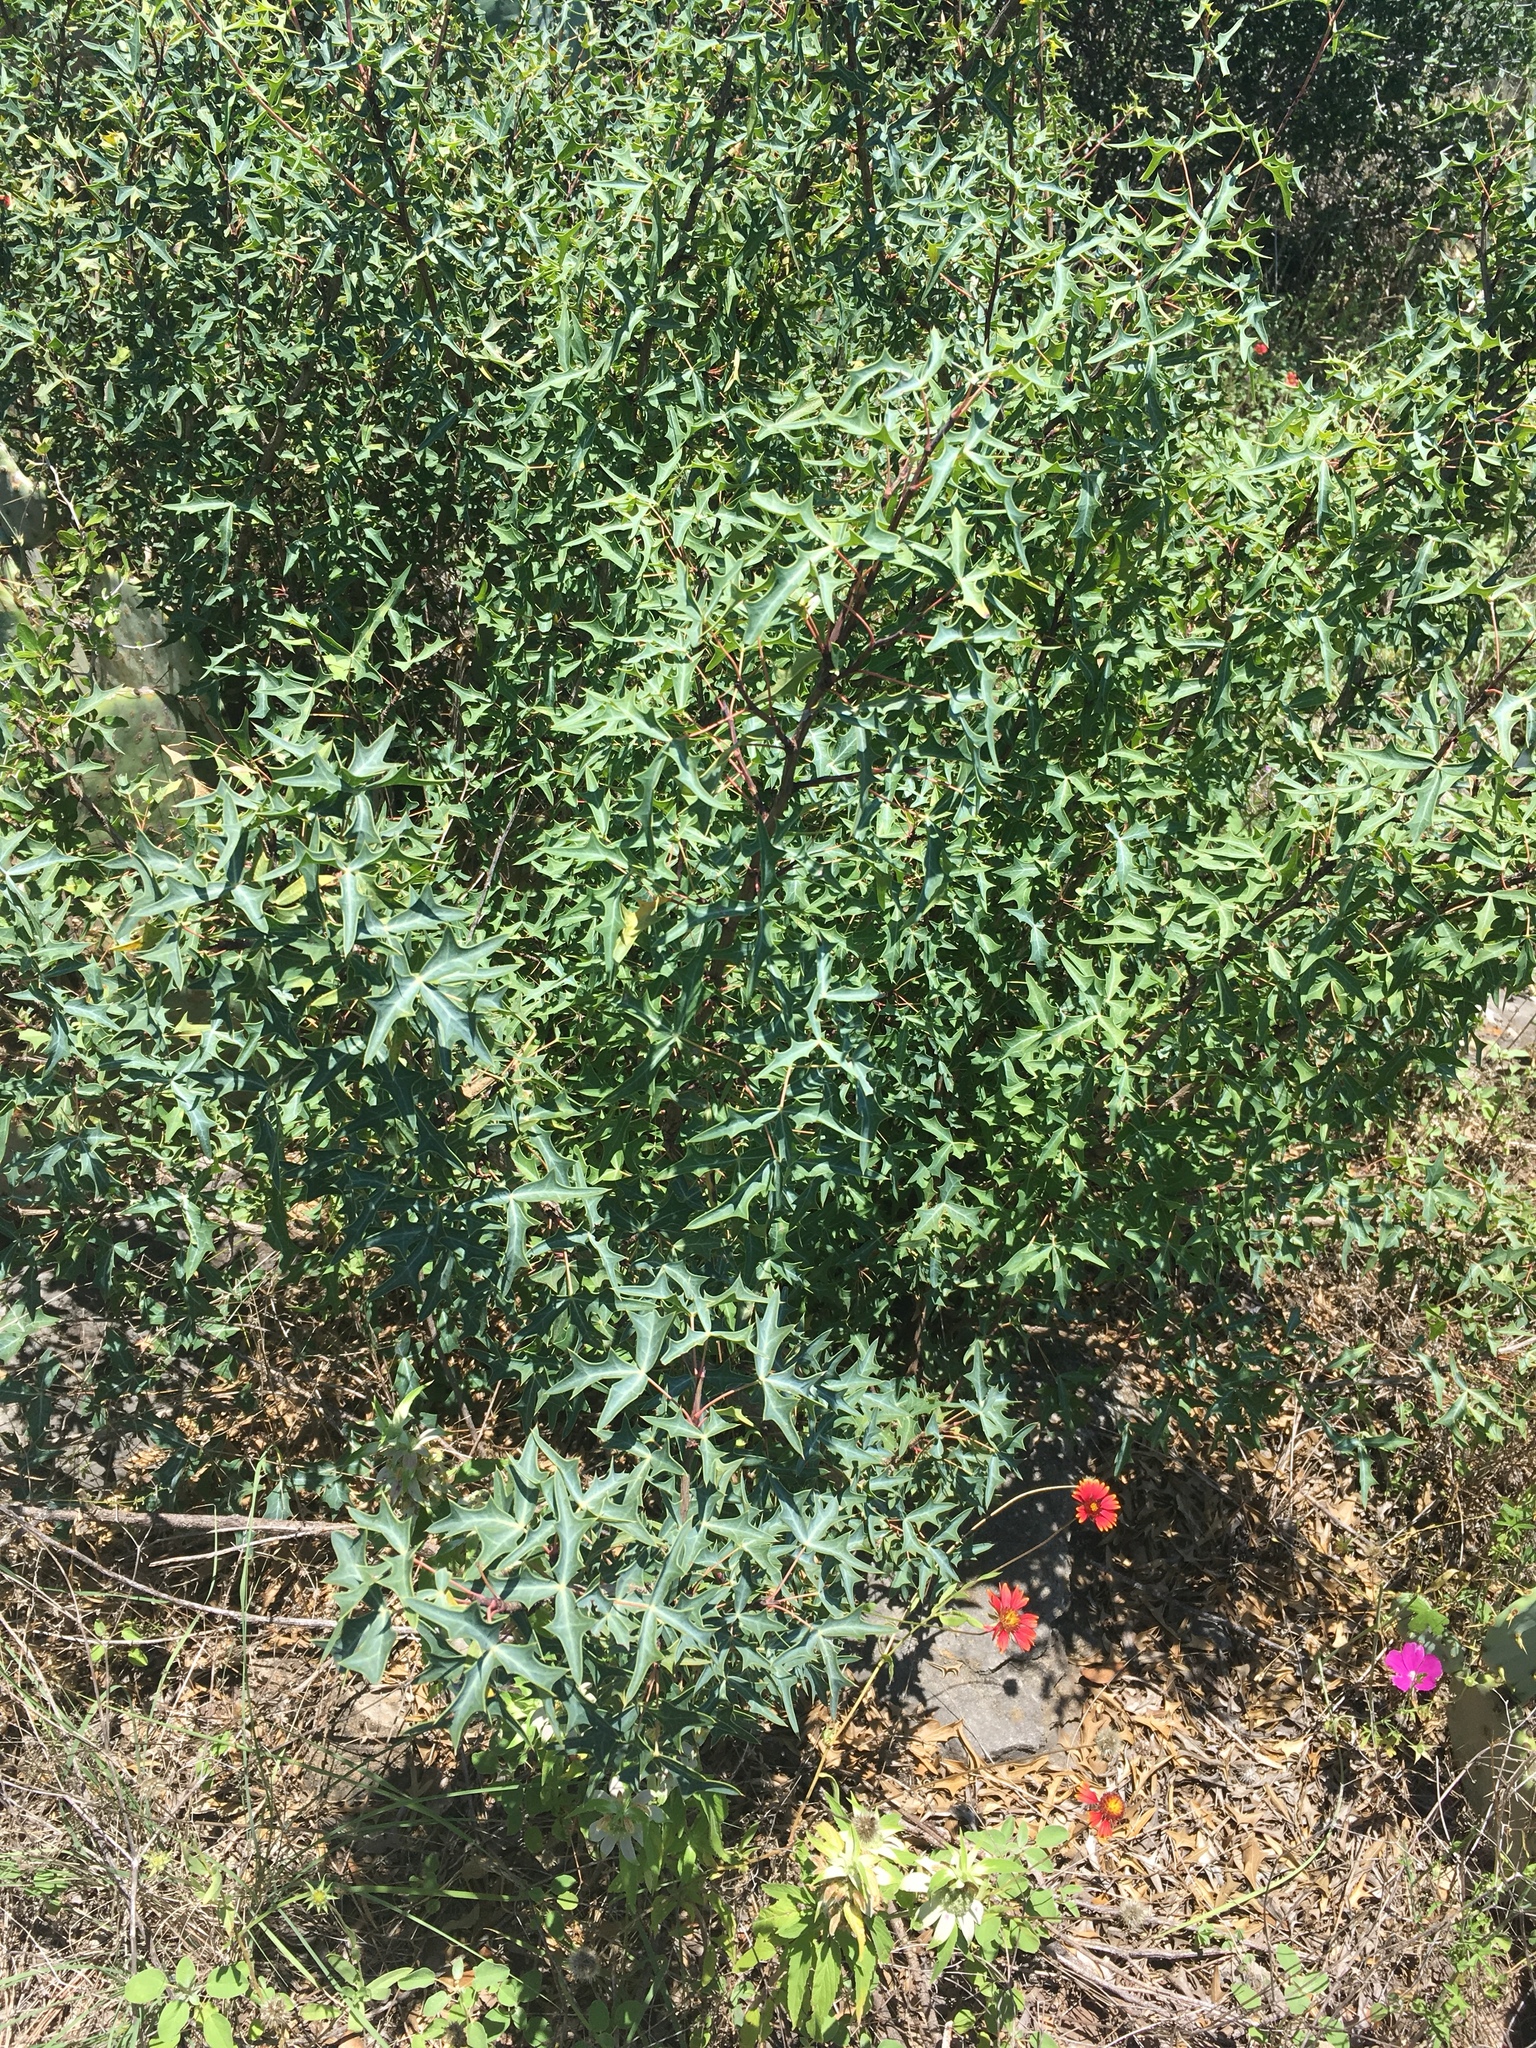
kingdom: Plantae
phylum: Tracheophyta
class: Magnoliopsida
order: Ranunculales
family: Berberidaceae
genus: Alloberberis
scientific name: Alloberberis trifoliolata
